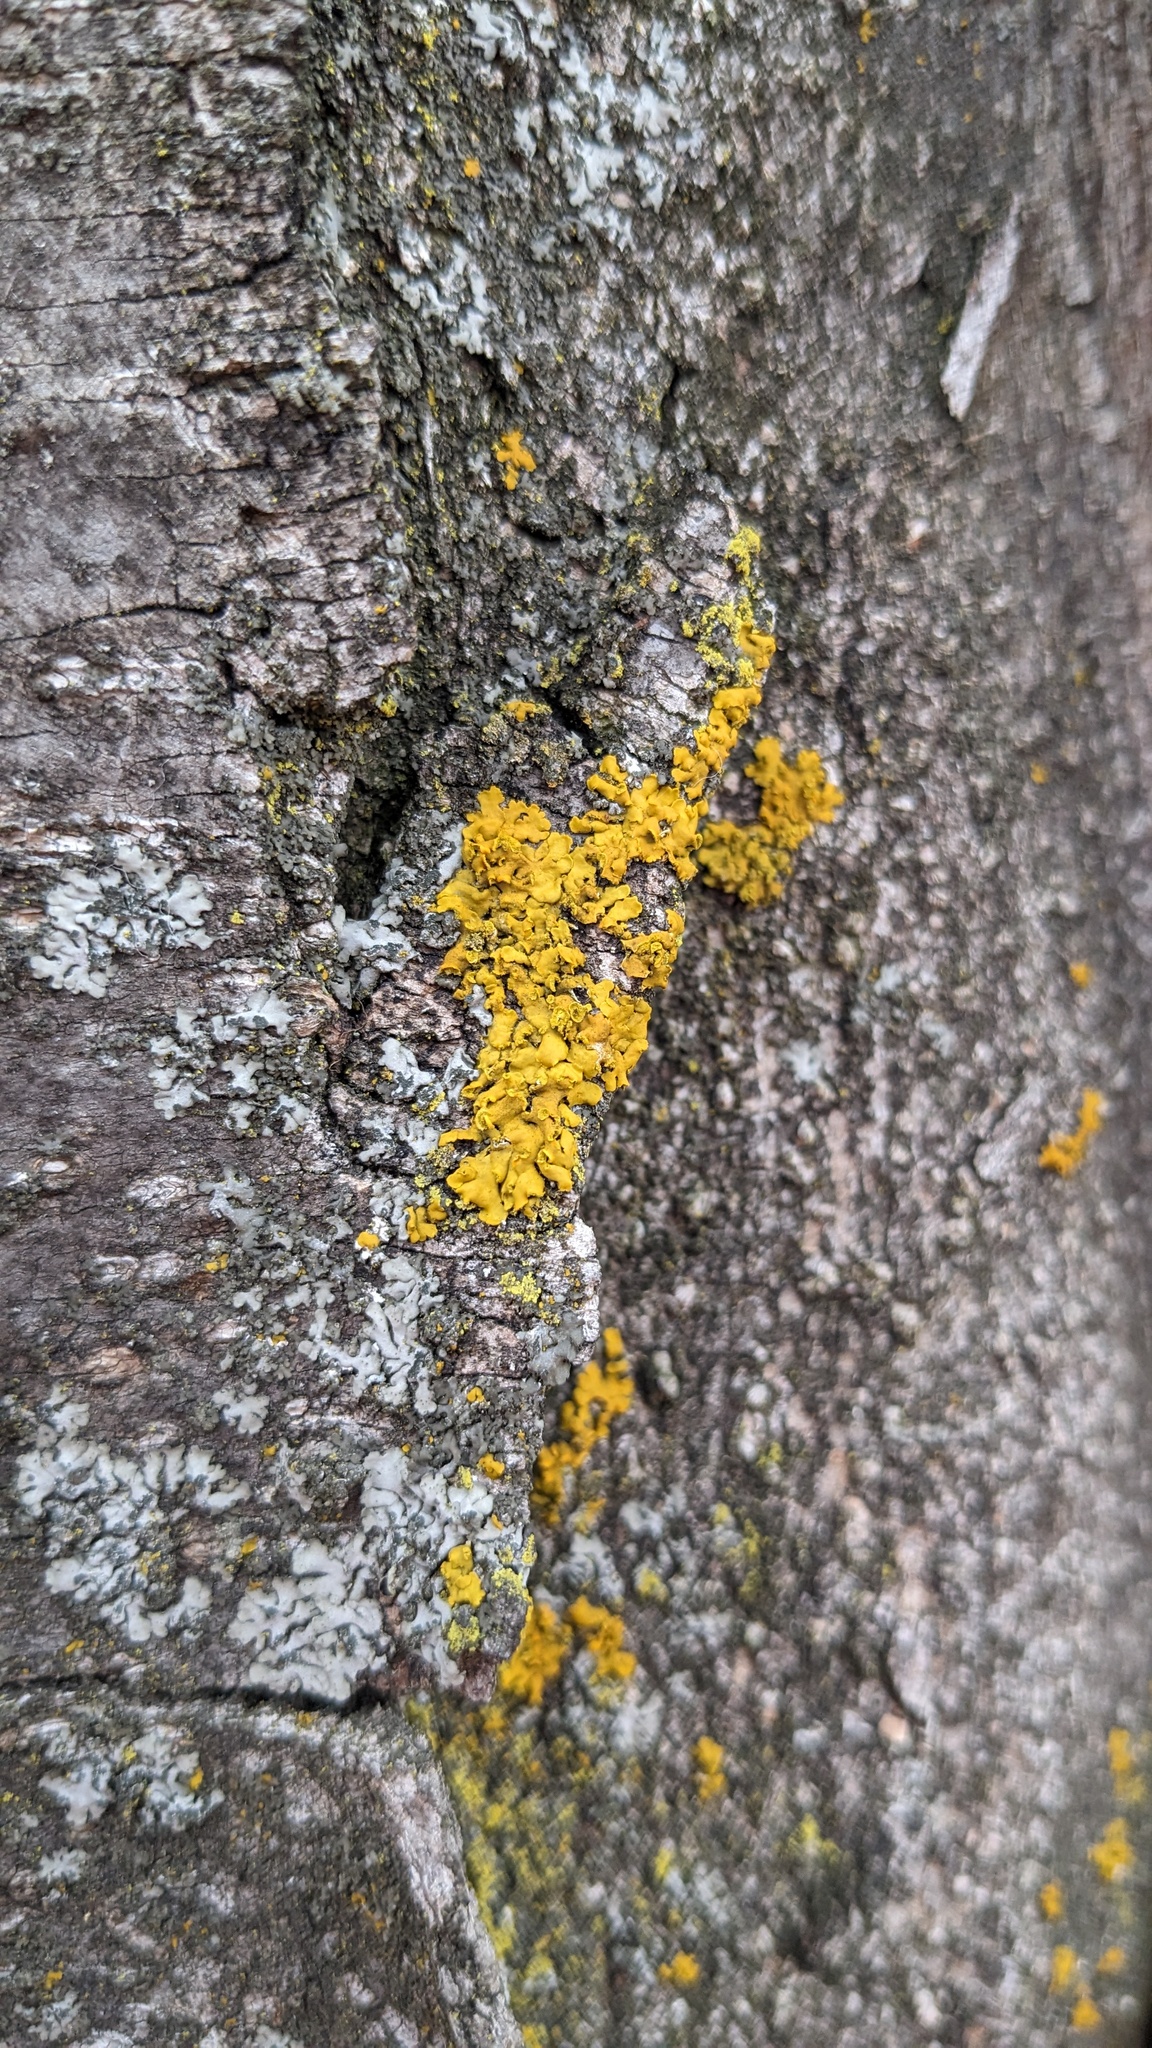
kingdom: Fungi
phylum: Ascomycota
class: Lecanoromycetes
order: Teloschistales
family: Teloschistaceae
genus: Oxneria
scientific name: Oxneria fallax
